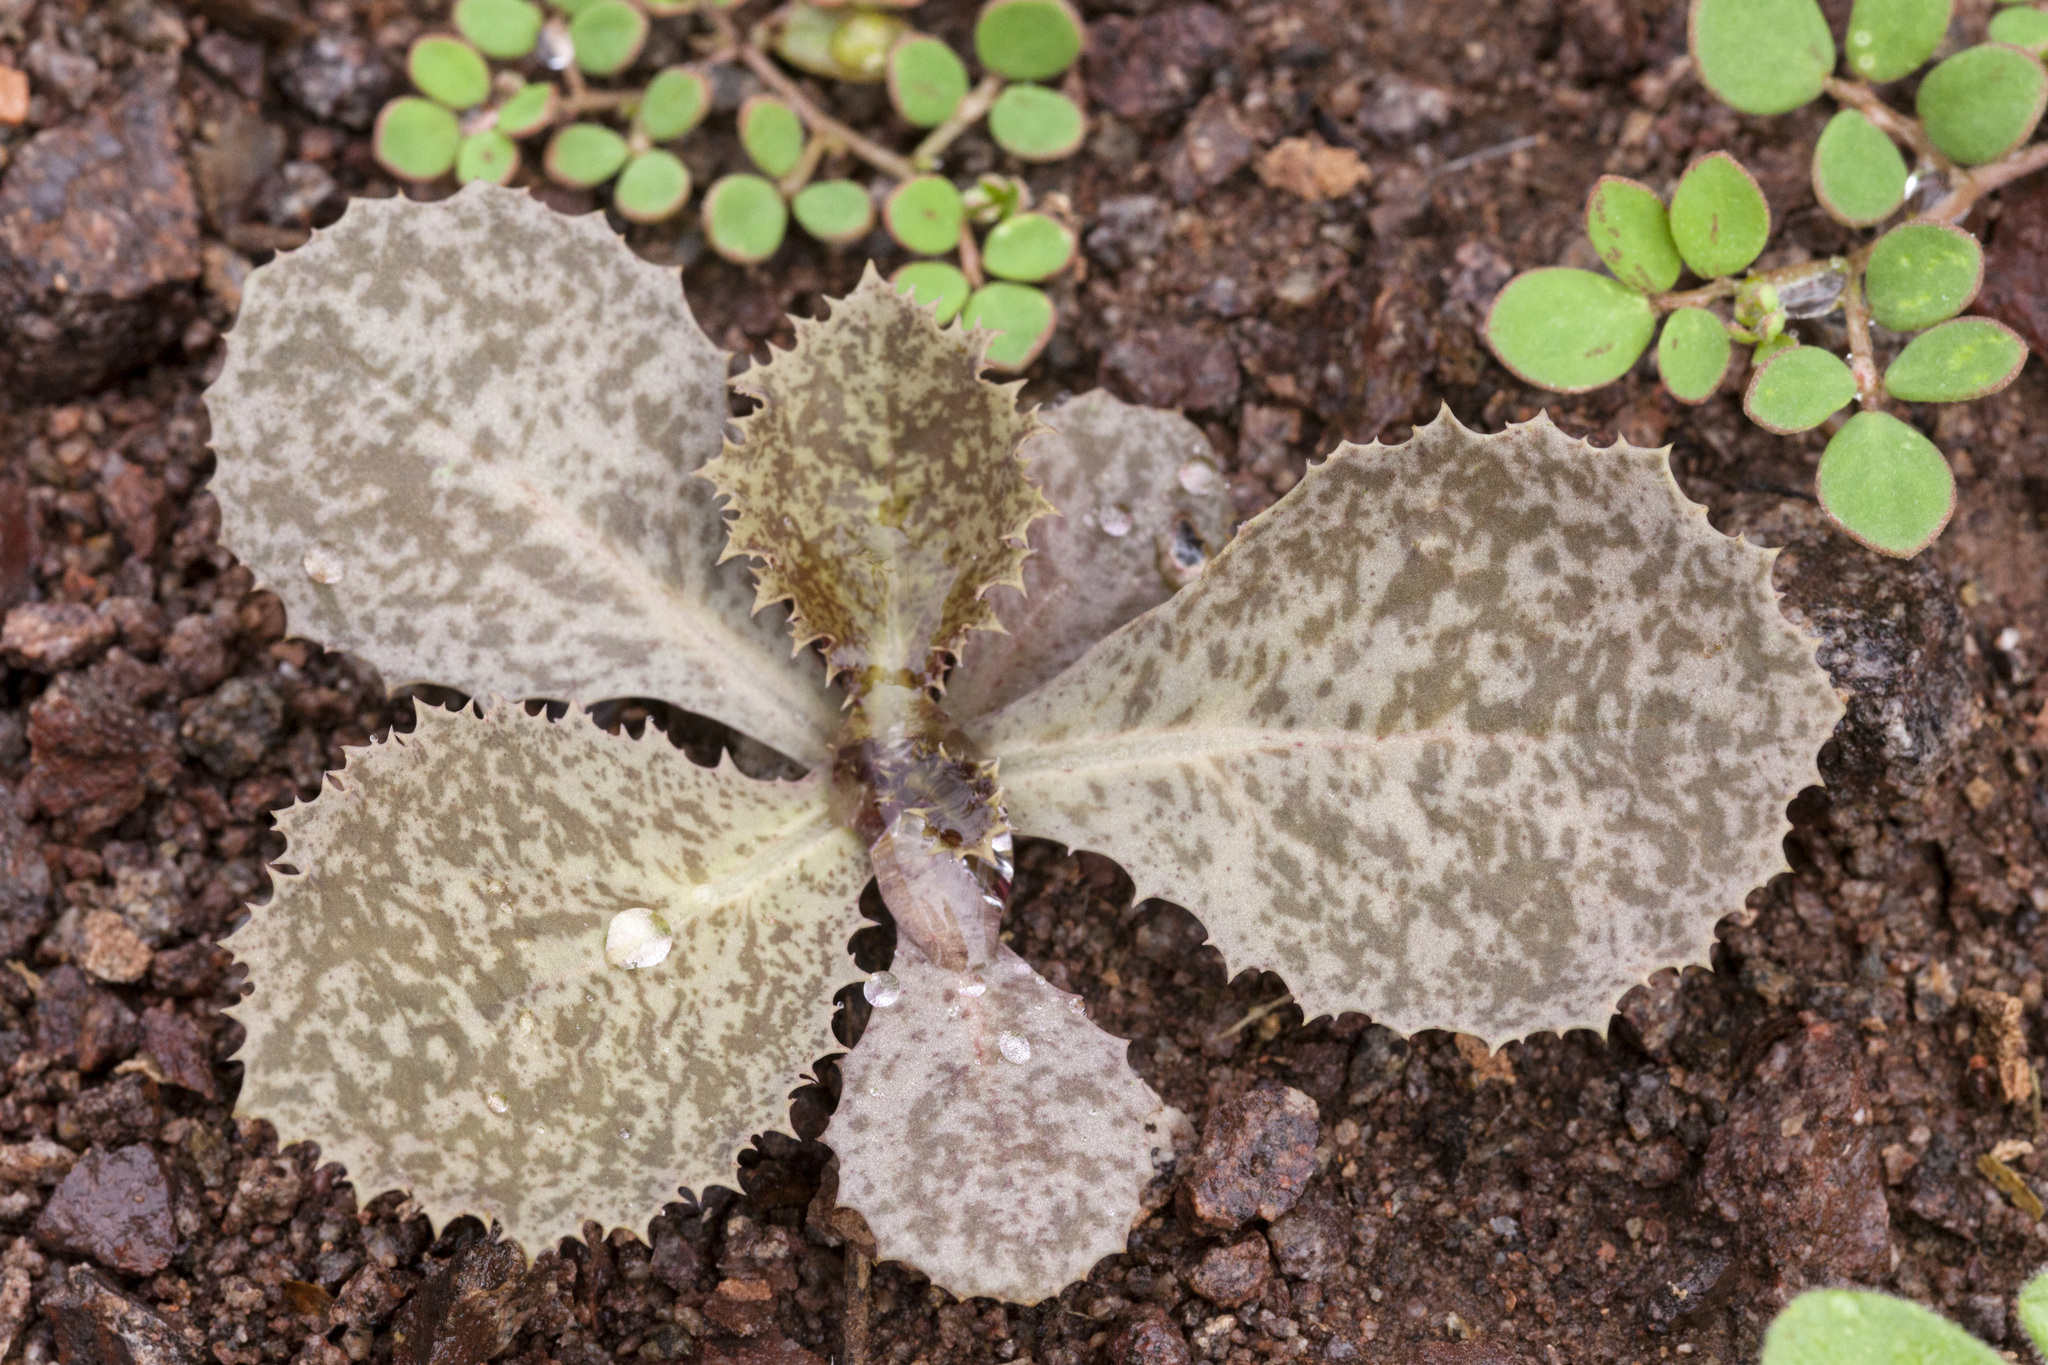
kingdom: Plantae
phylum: Tracheophyta
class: Magnoliopsida
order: Asterales
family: Asteraceae
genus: Atrichoseris
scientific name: Atrichoseris platyphylla
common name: Tobaccoweed
